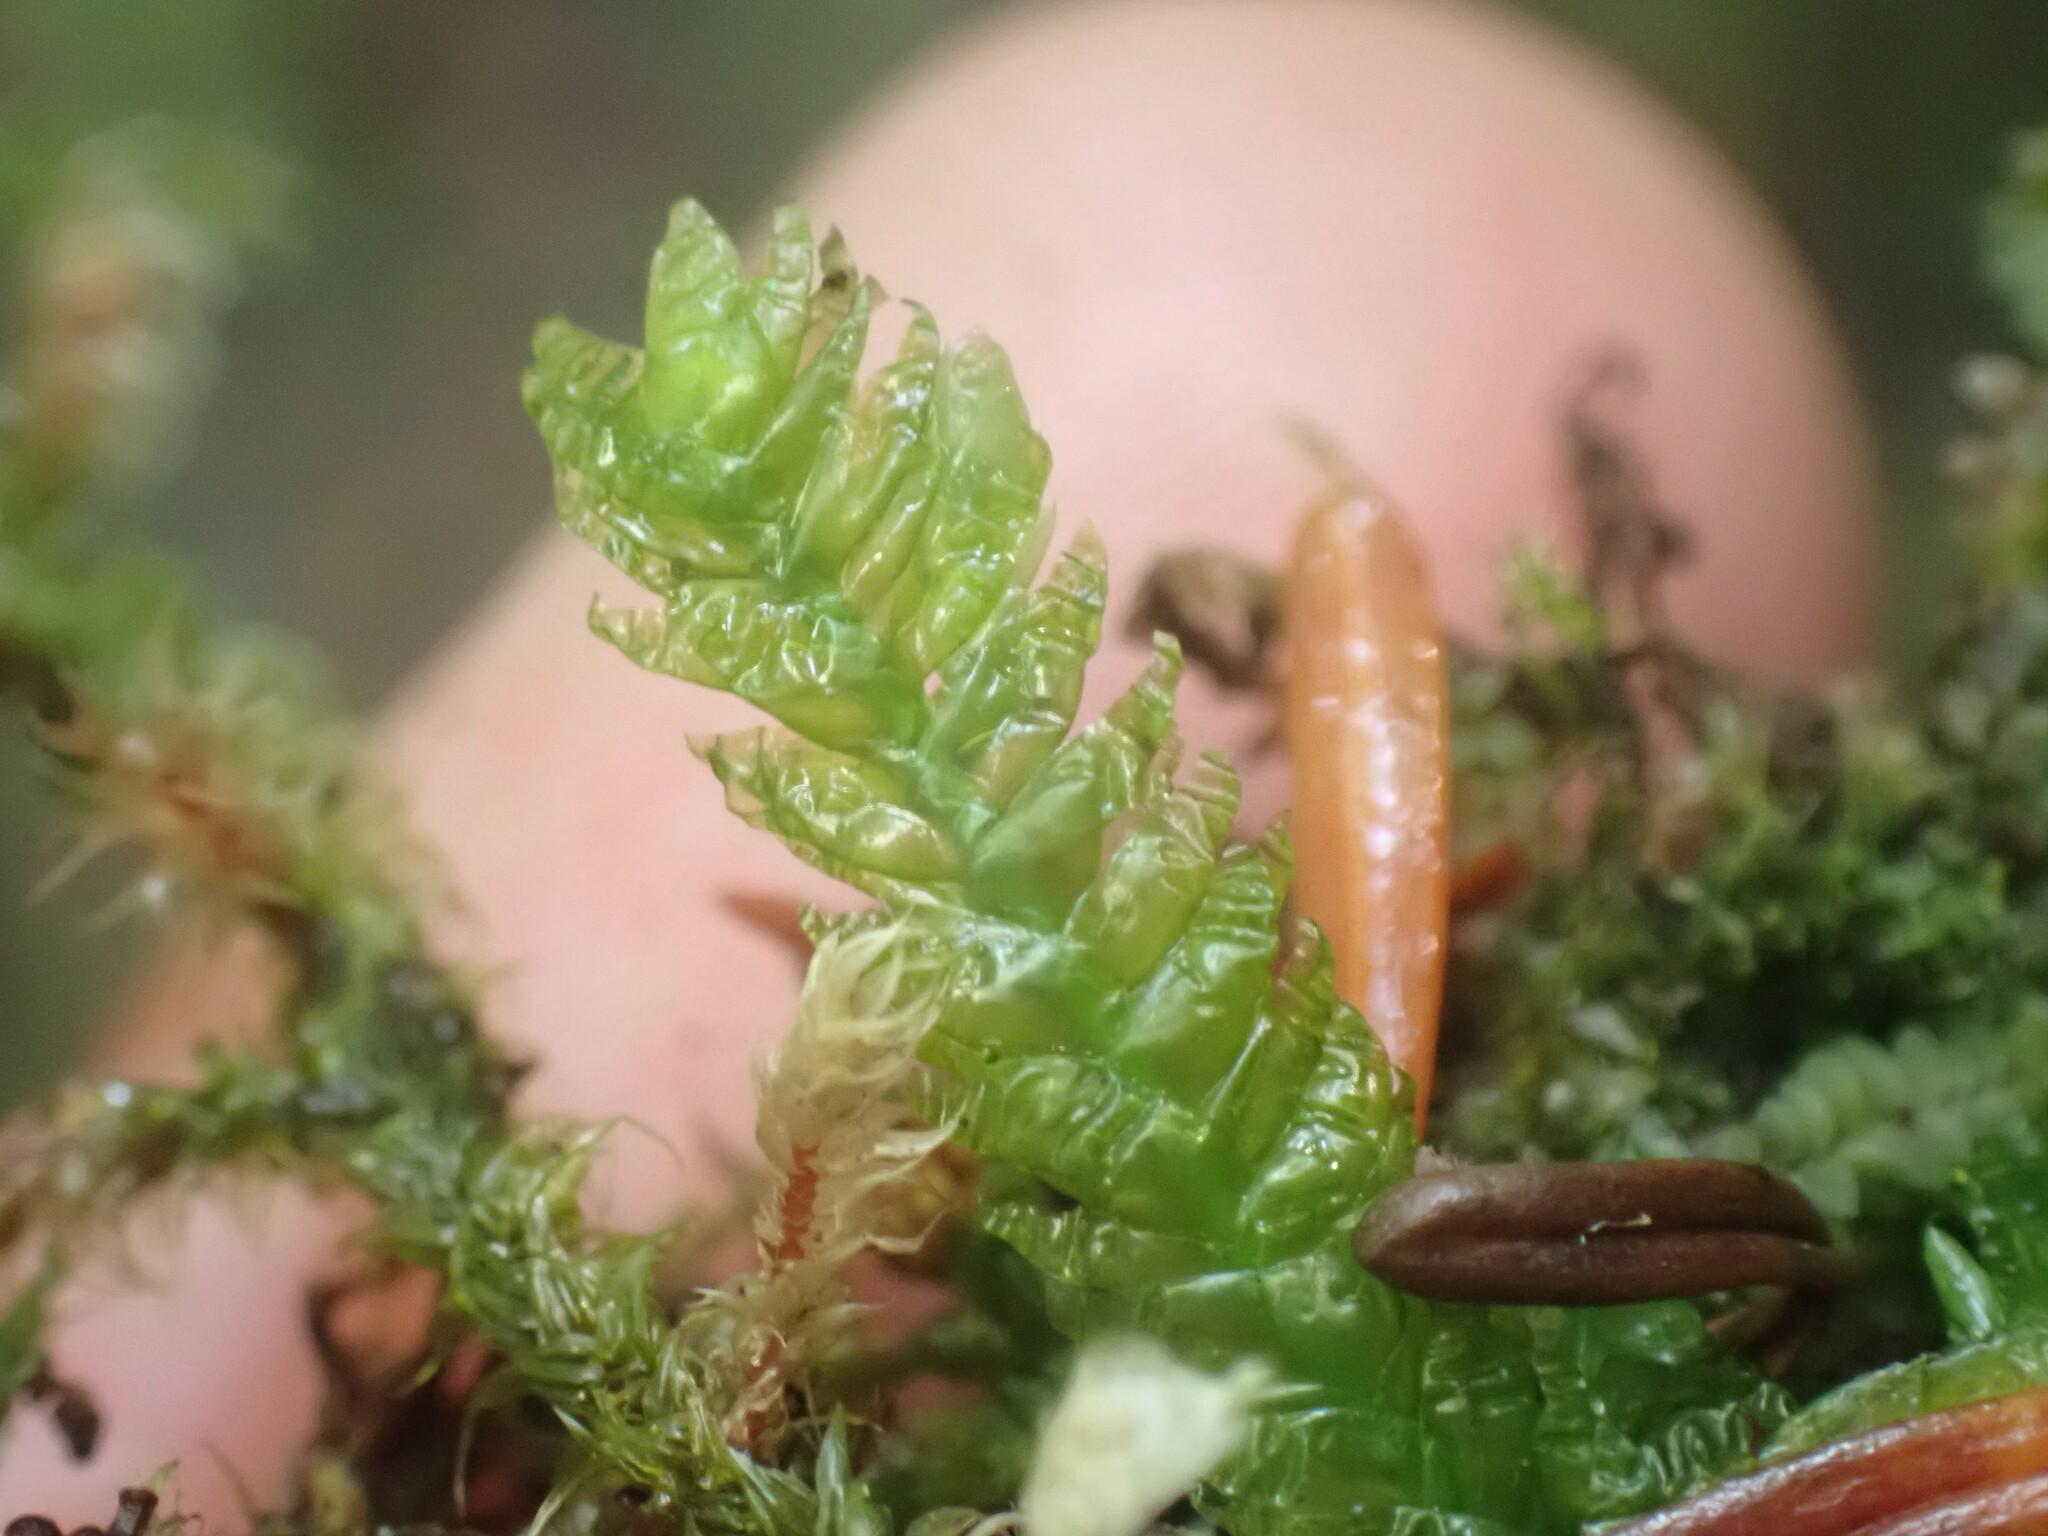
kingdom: Plantae
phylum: Bryophyta
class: Bryopsida
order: Hypnales
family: Plagiotheciaceae
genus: Plagiothecium
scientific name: Plagiothecium undulatum
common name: Waved silk-moss
